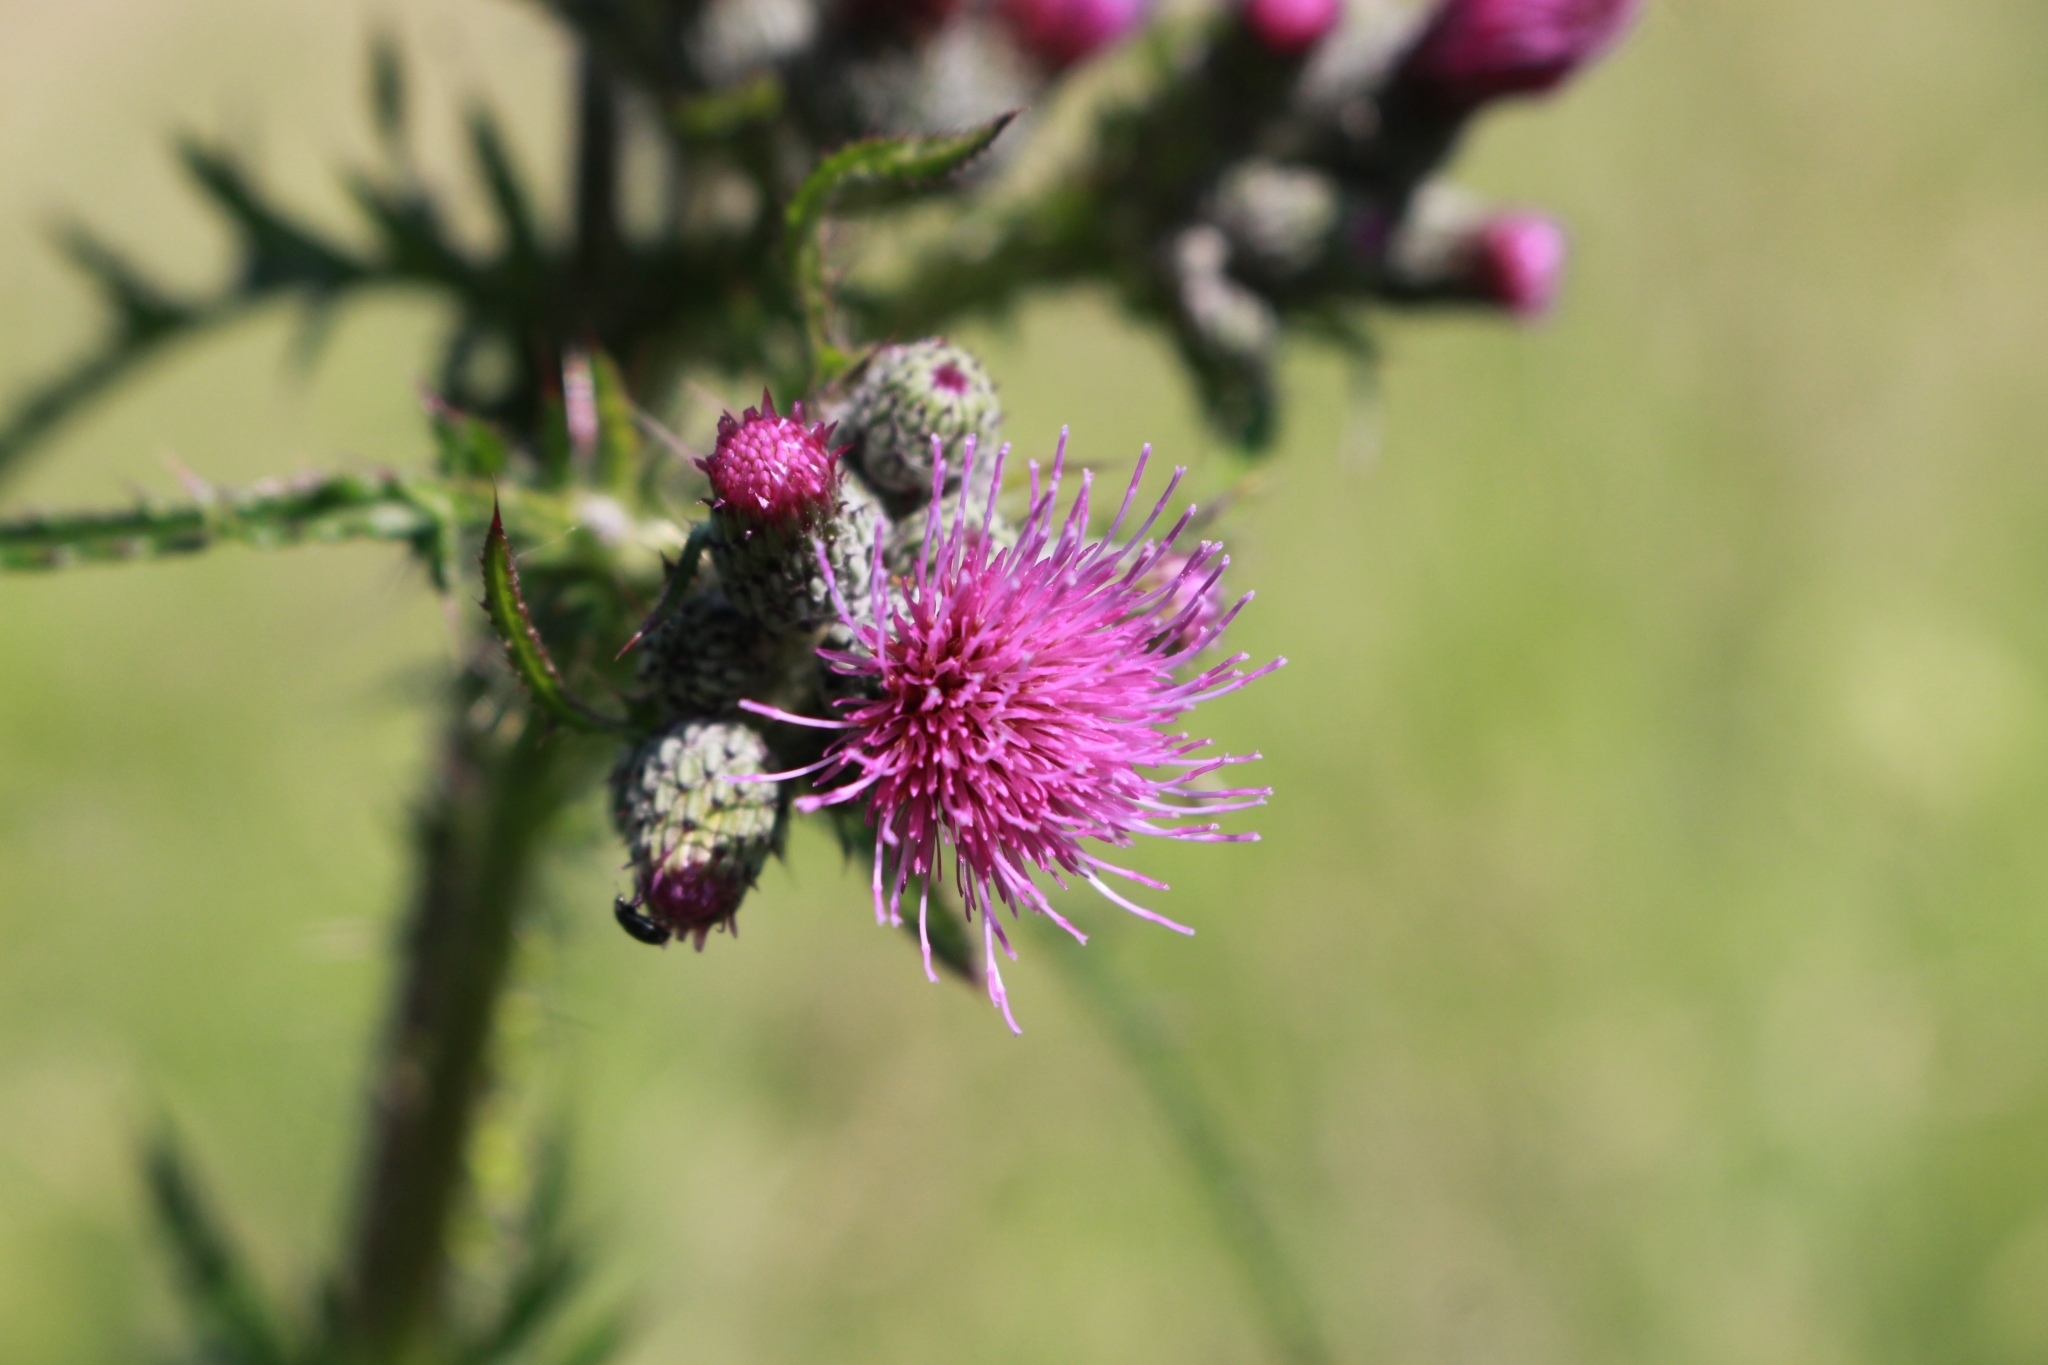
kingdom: Plantae
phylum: Tracheophyta
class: Magnoliopsida
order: Asterales
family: Asteraceae
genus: Cirsium
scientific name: Cirsium palustre
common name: Marsh thistle
